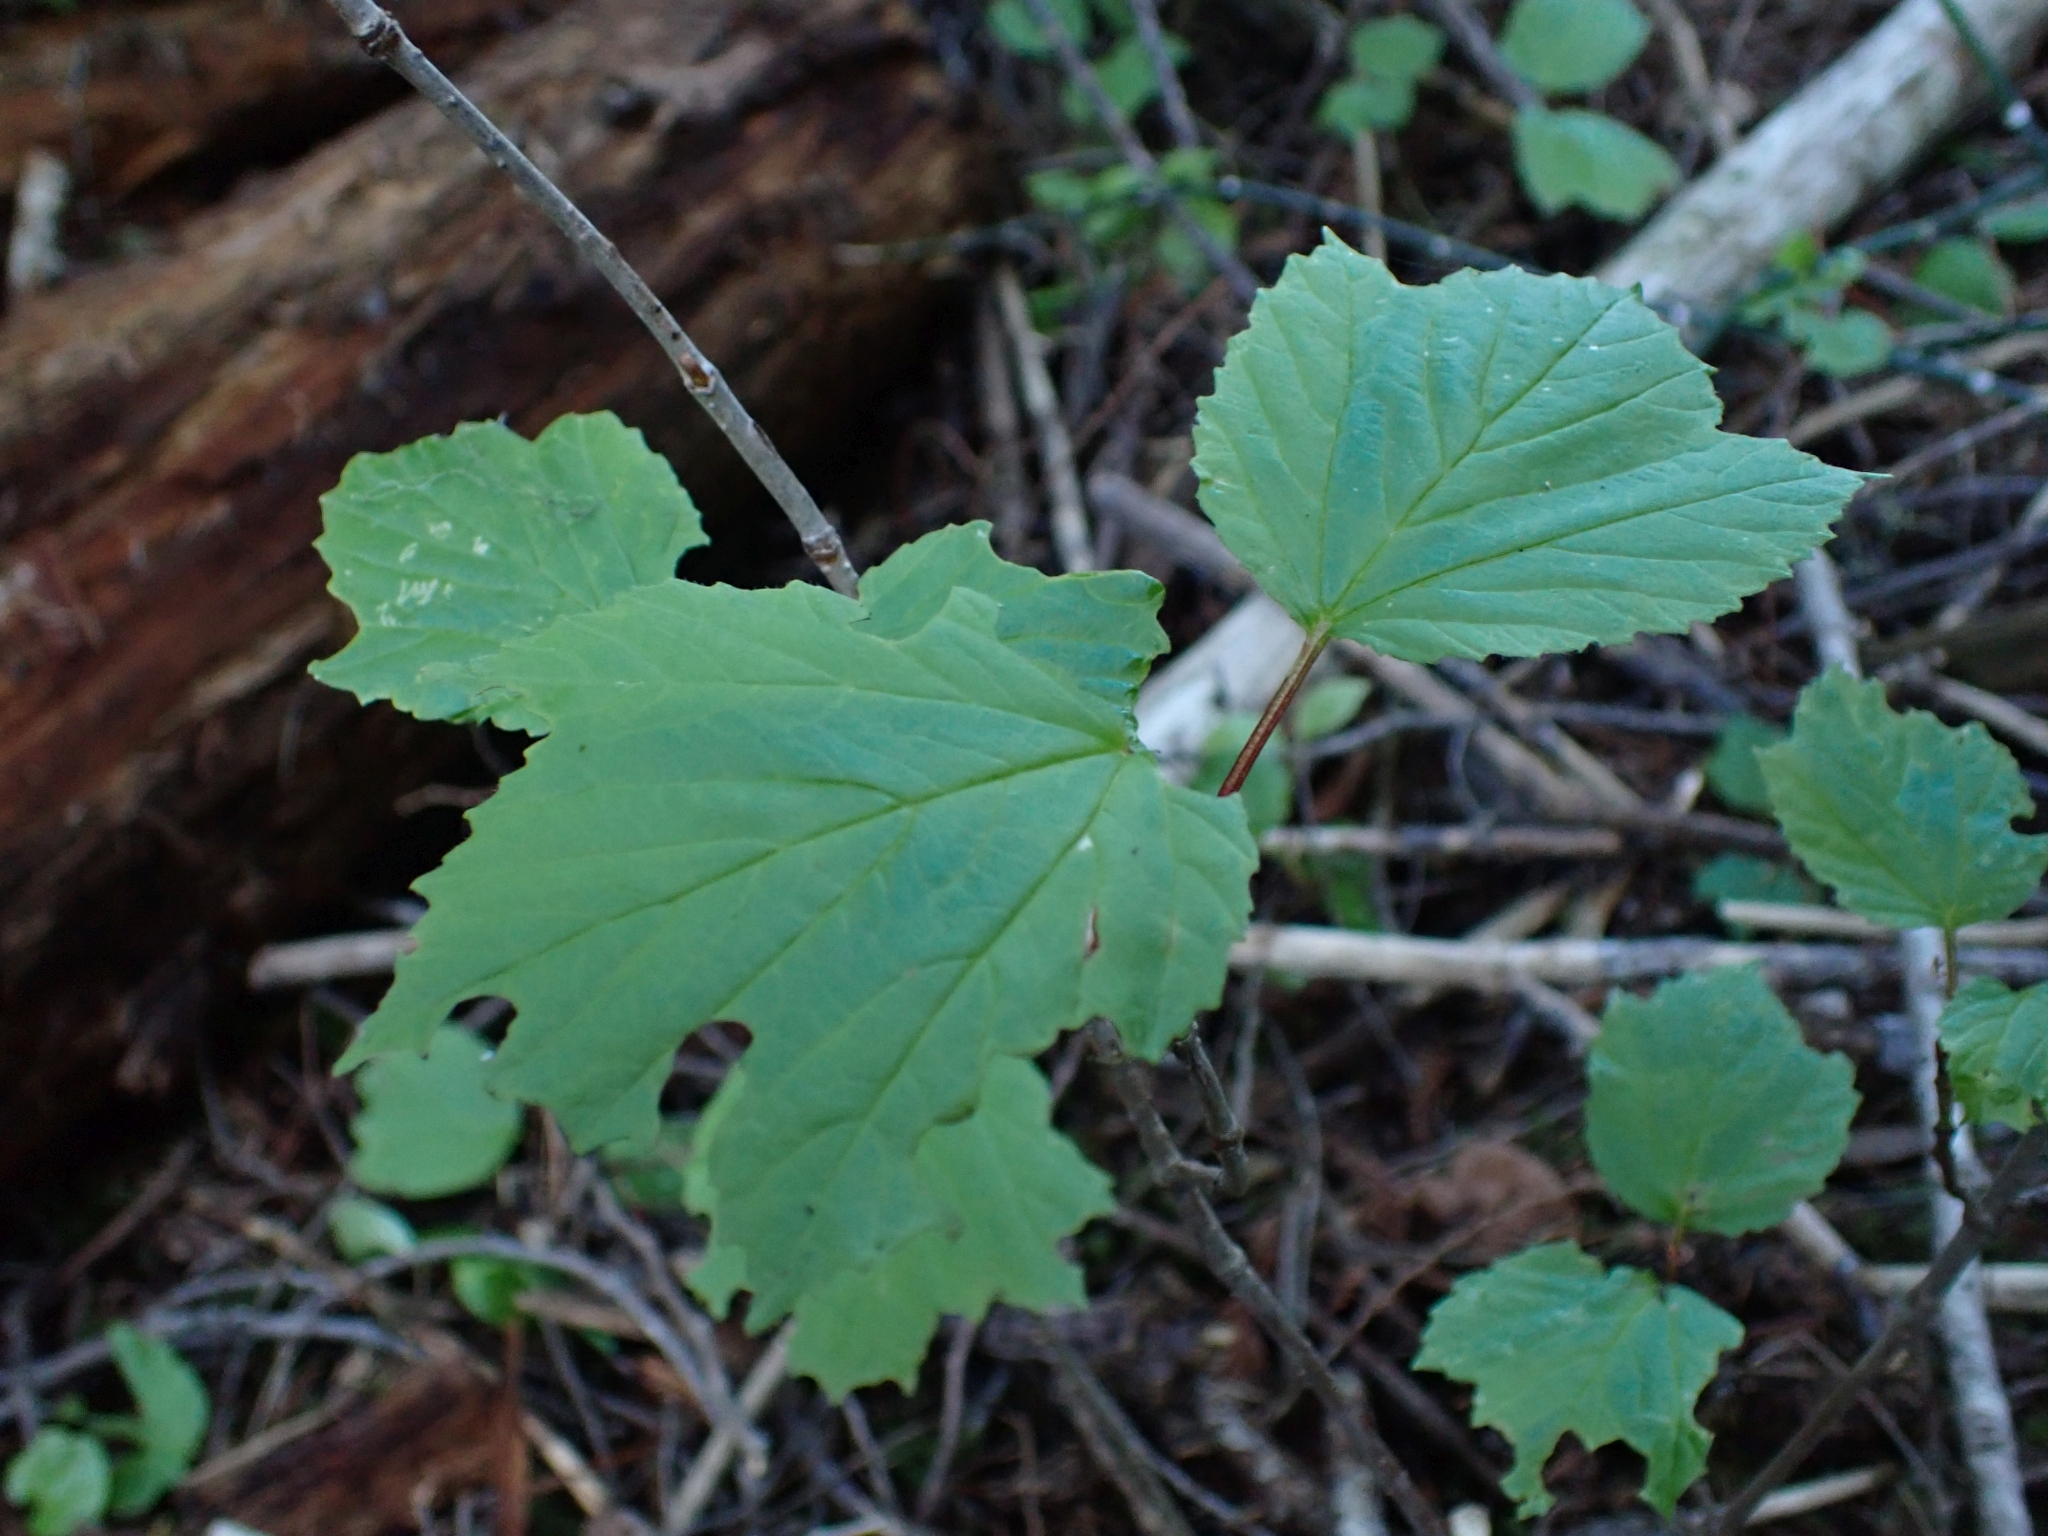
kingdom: Plantae
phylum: Tracheophyta
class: Magnoliopsida
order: Dipsacales
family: Viburnaceae
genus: Viburnum
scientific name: Viburnum edule
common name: Mooseberry
